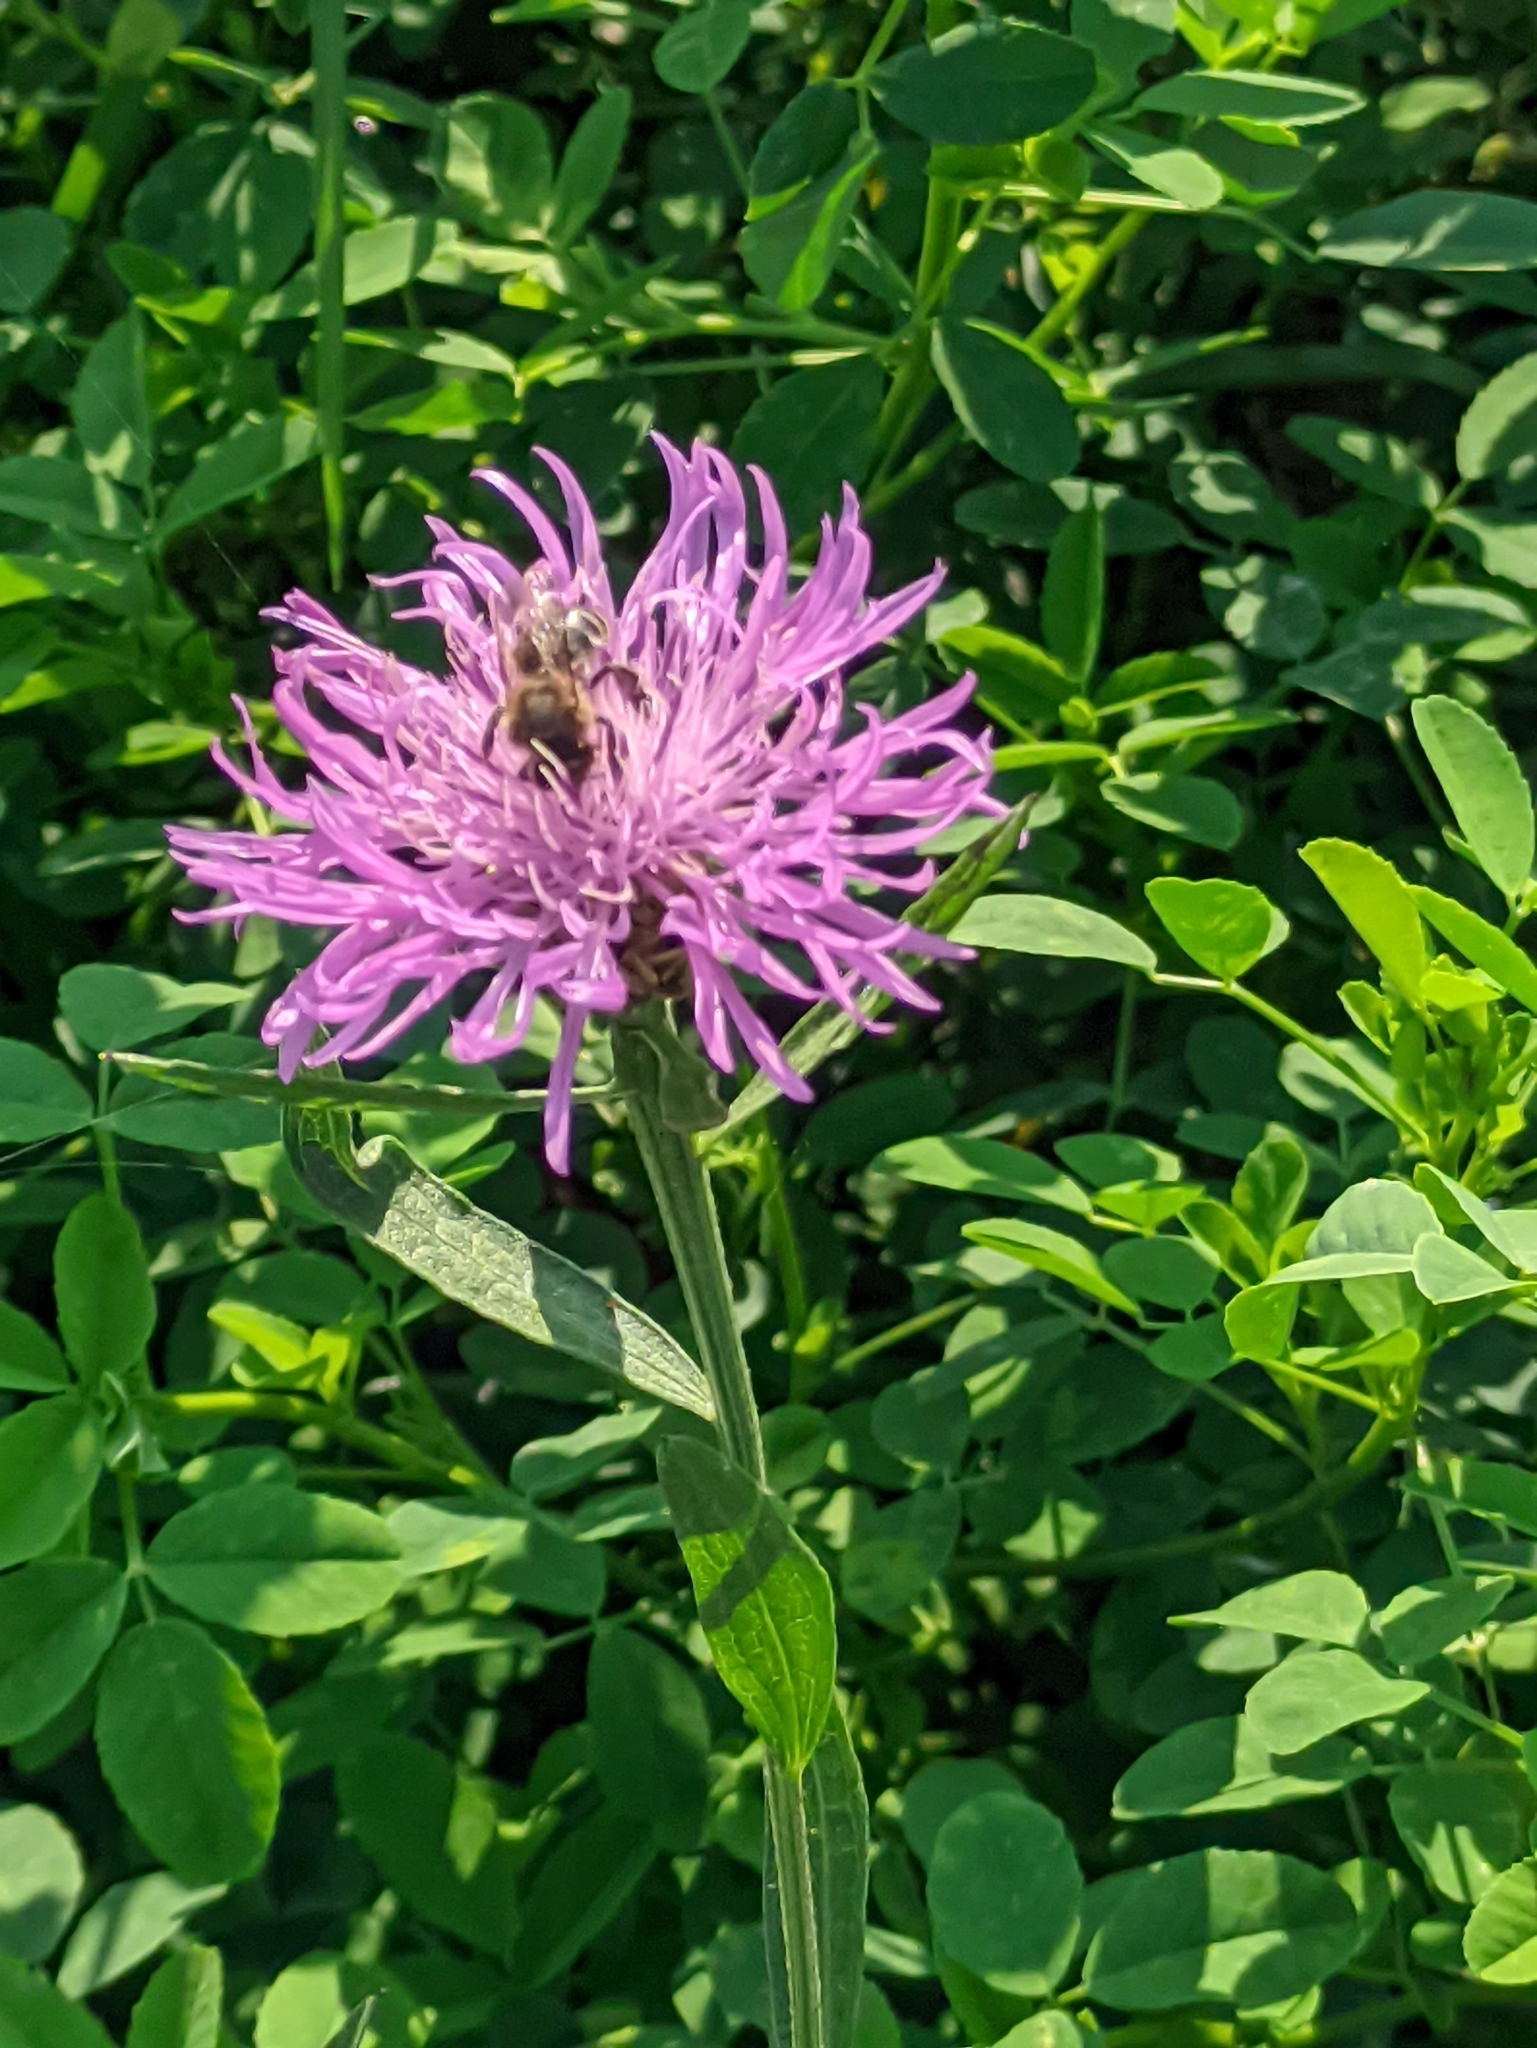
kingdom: Plantae
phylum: Tracheophyta
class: Magnoliopsida
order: Asterales
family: Asteraceae
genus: Centaurea
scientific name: Centaurea jacea
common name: Brown knapweed
